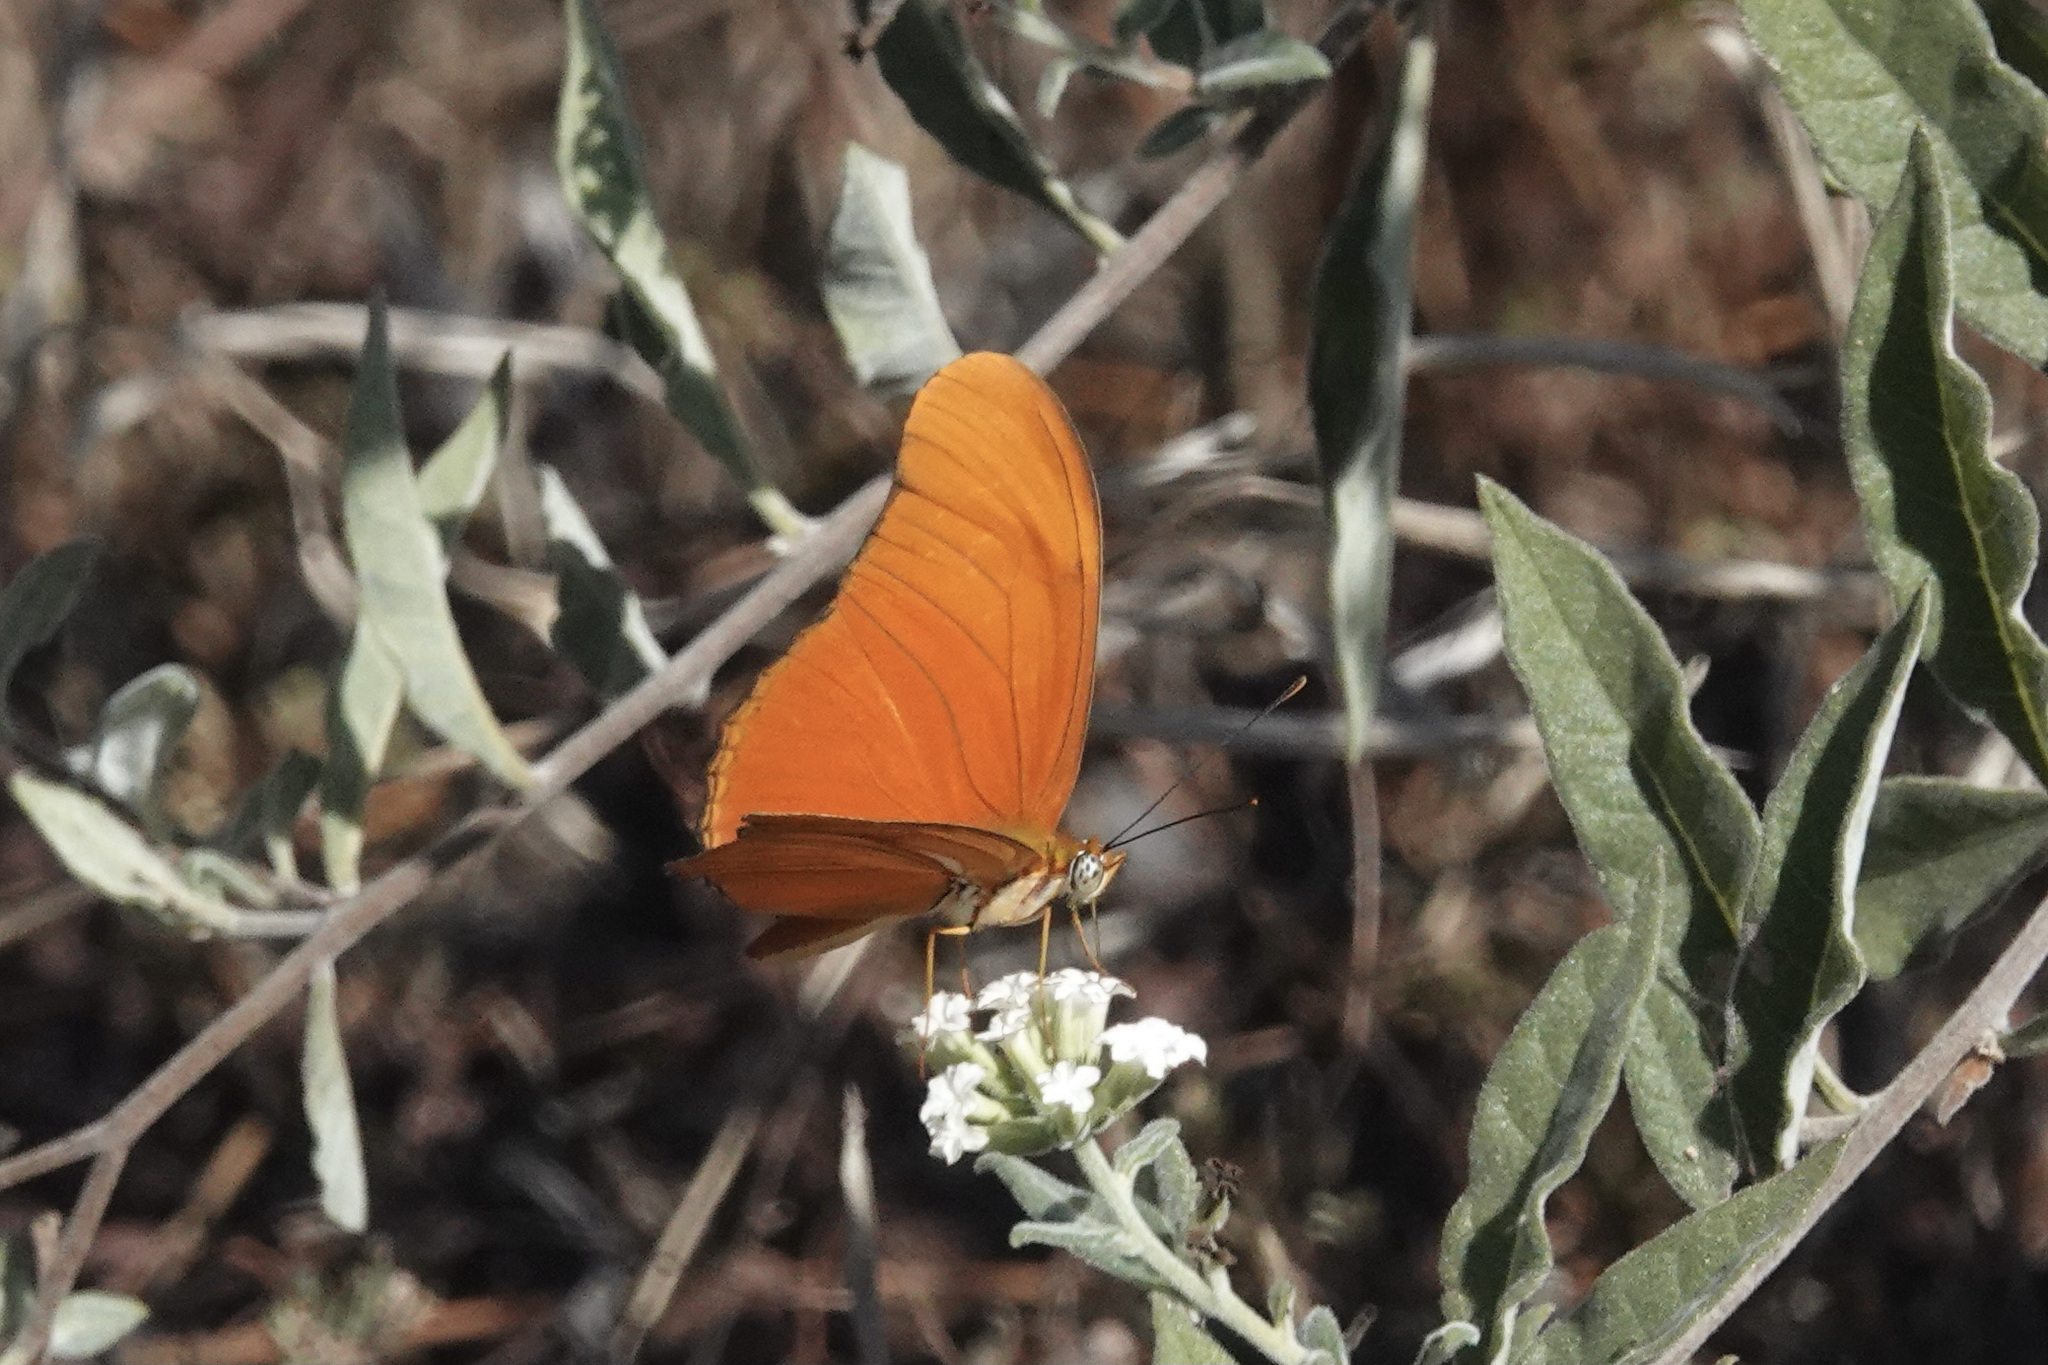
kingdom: Animalia
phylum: Arthropoda
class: Insecta
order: Lepidoptera
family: Nymphalidae
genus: Dryas
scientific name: Dryas iulia
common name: Flambeau
